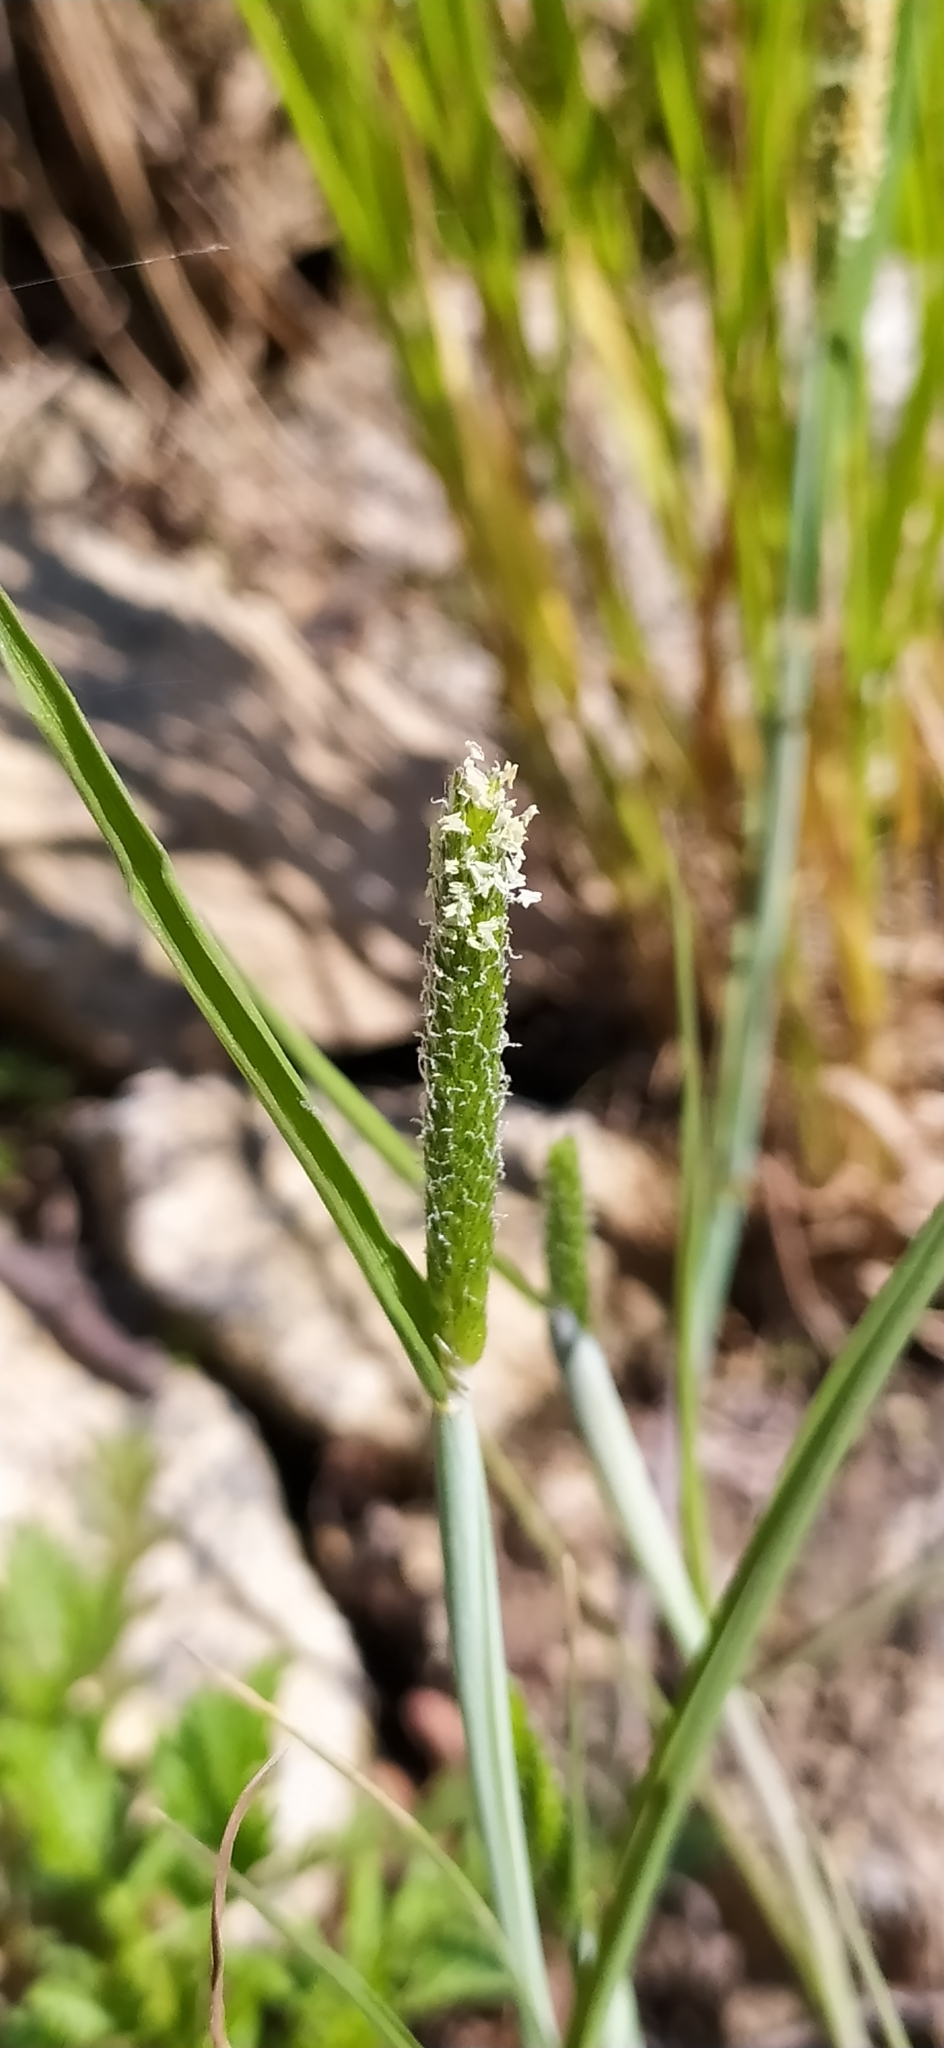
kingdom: Plantae
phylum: Tracheophyta
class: Liliopsida
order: Poales
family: Poaceae
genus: Alopecurus
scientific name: Alopecurus aequalis
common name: Orange foxtail
